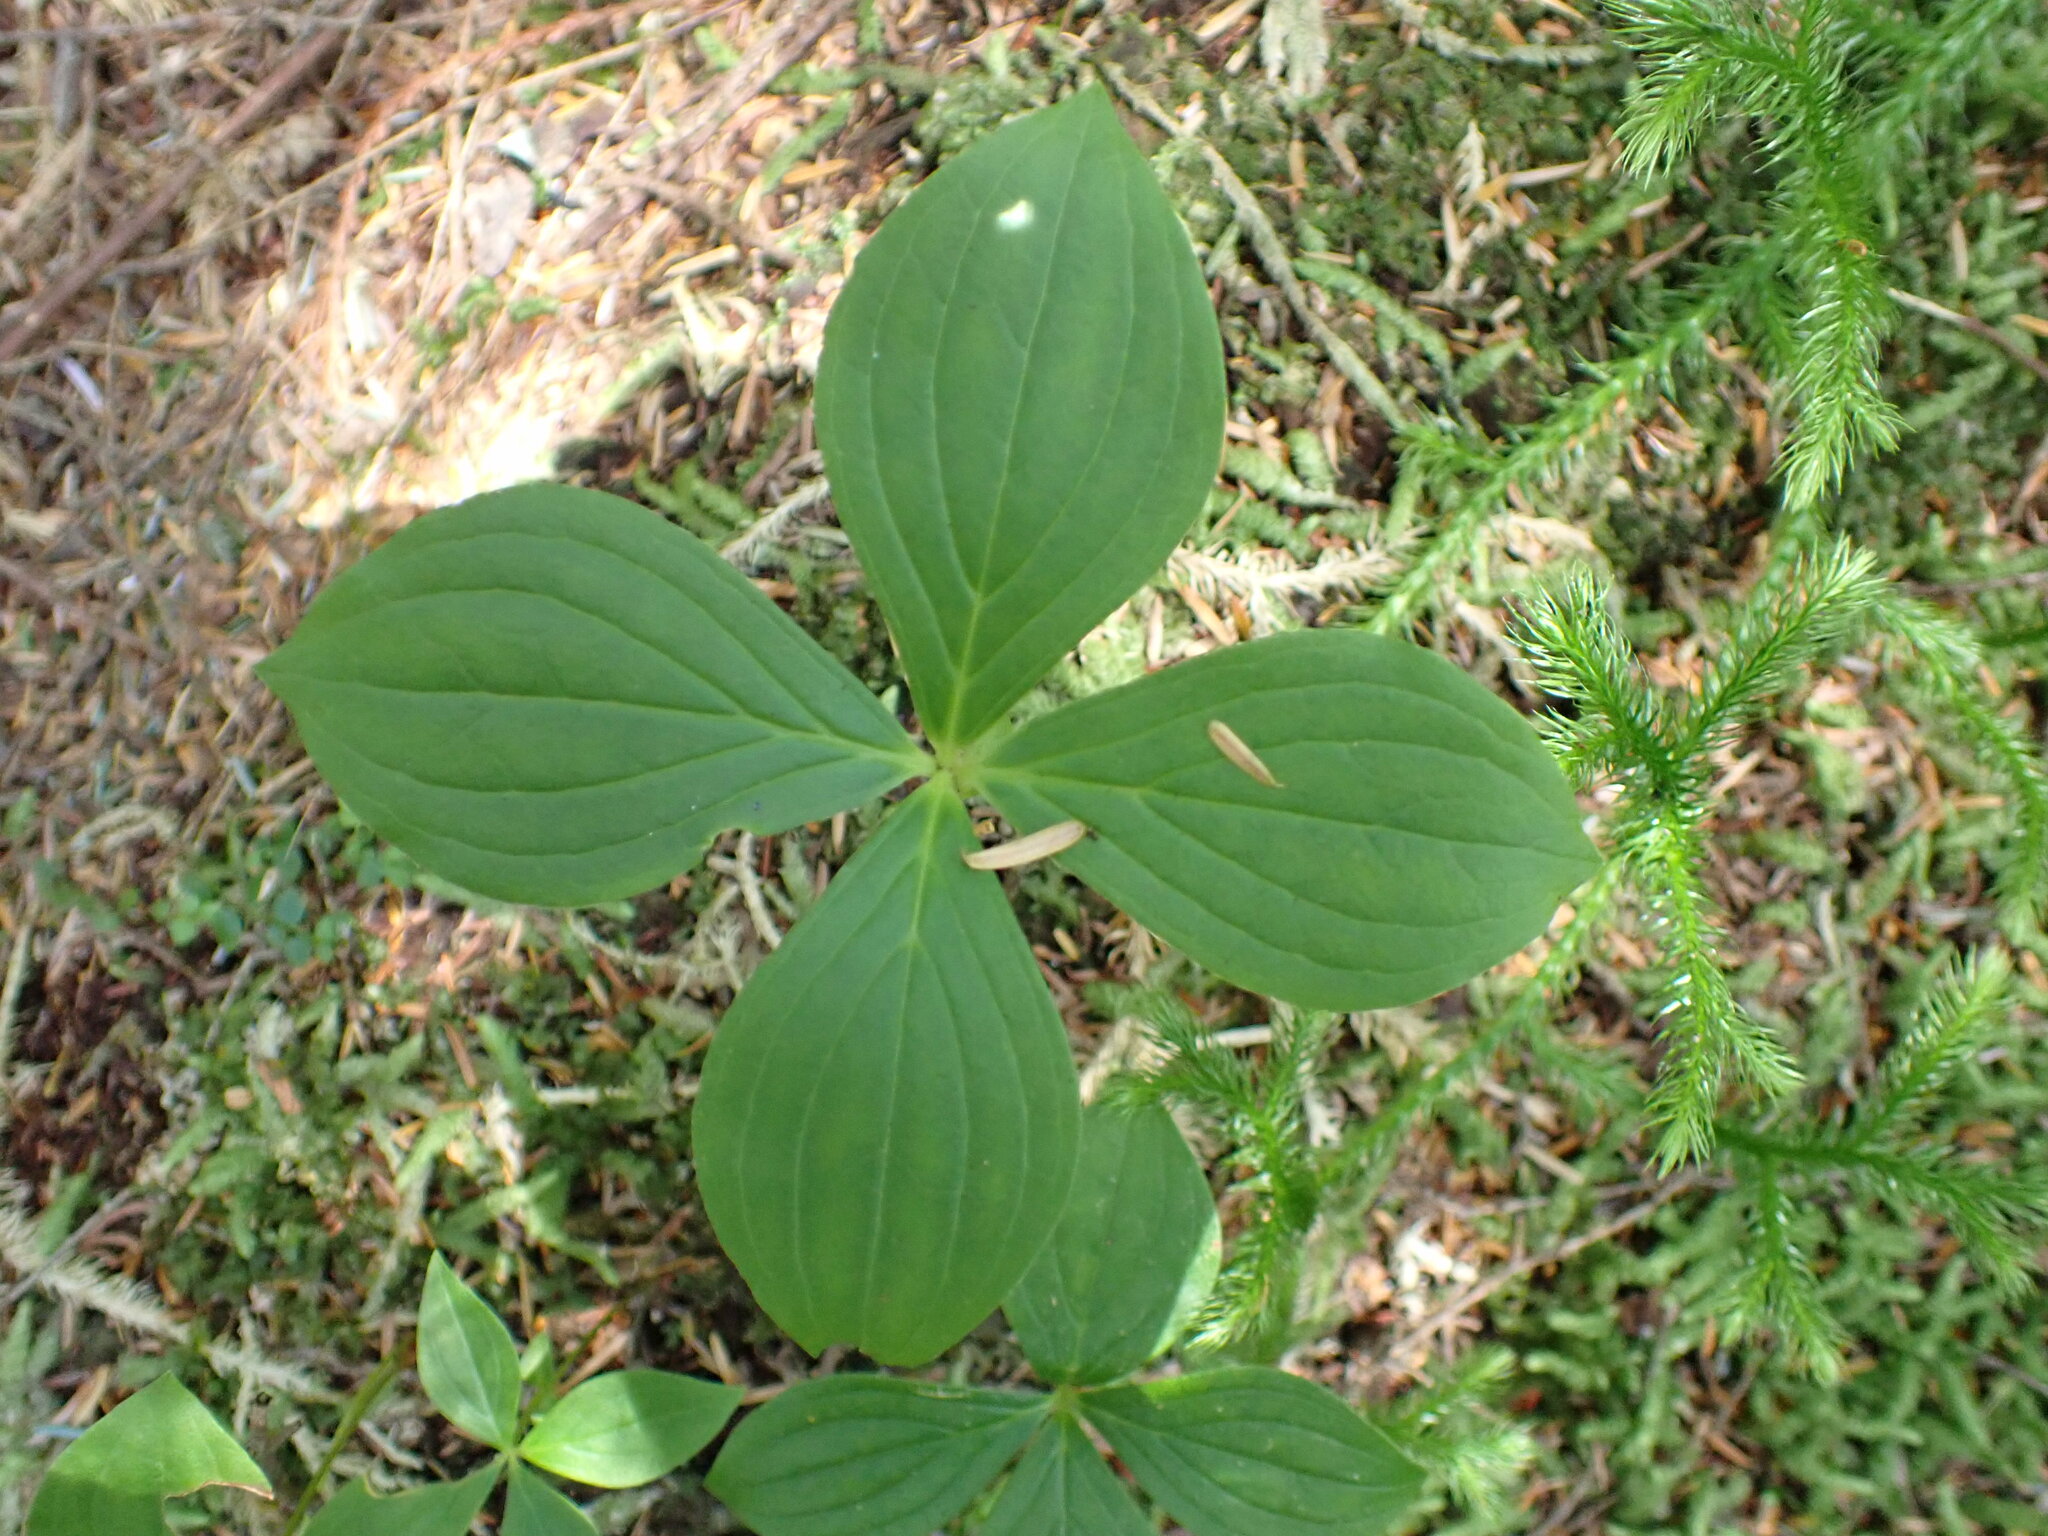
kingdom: Plantae
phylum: Tracheophyta
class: Magnoliopsida
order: Cornales
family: Cornaceae
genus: Cornus
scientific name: Cornus unalaschkensis
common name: Alaska bunchberry
